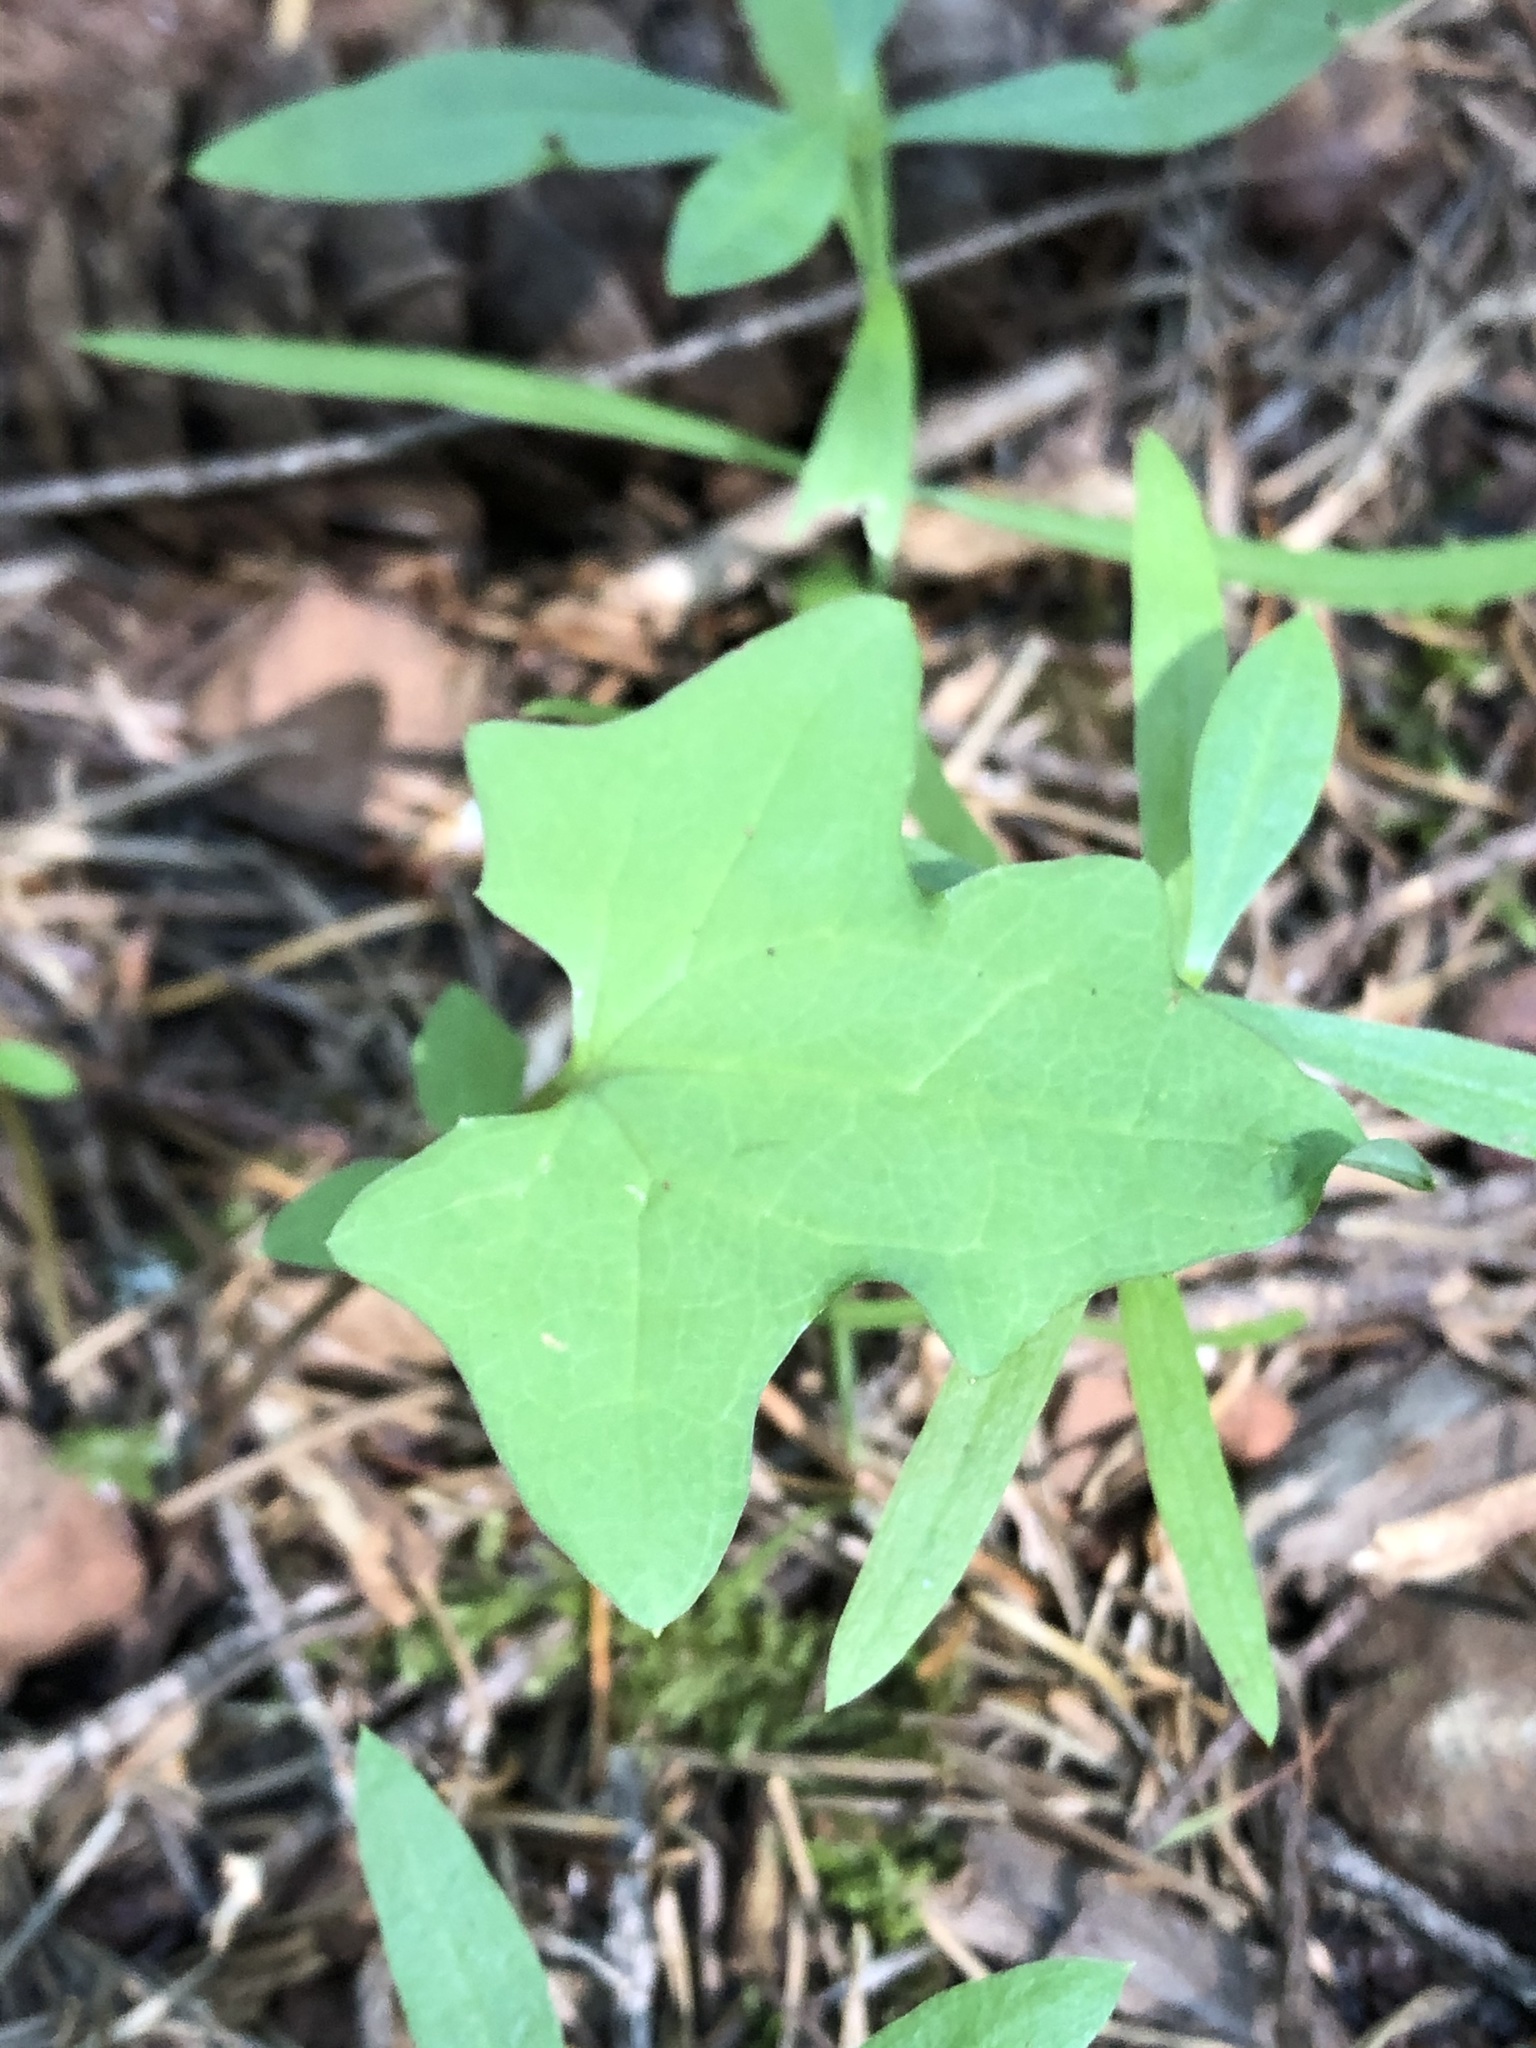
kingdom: Plantae
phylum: Tracheophyta
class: Magnoliopsida
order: Asterales
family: Asteraceae
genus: Mycelis
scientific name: Mycelis muralis
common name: Wall lettuce
